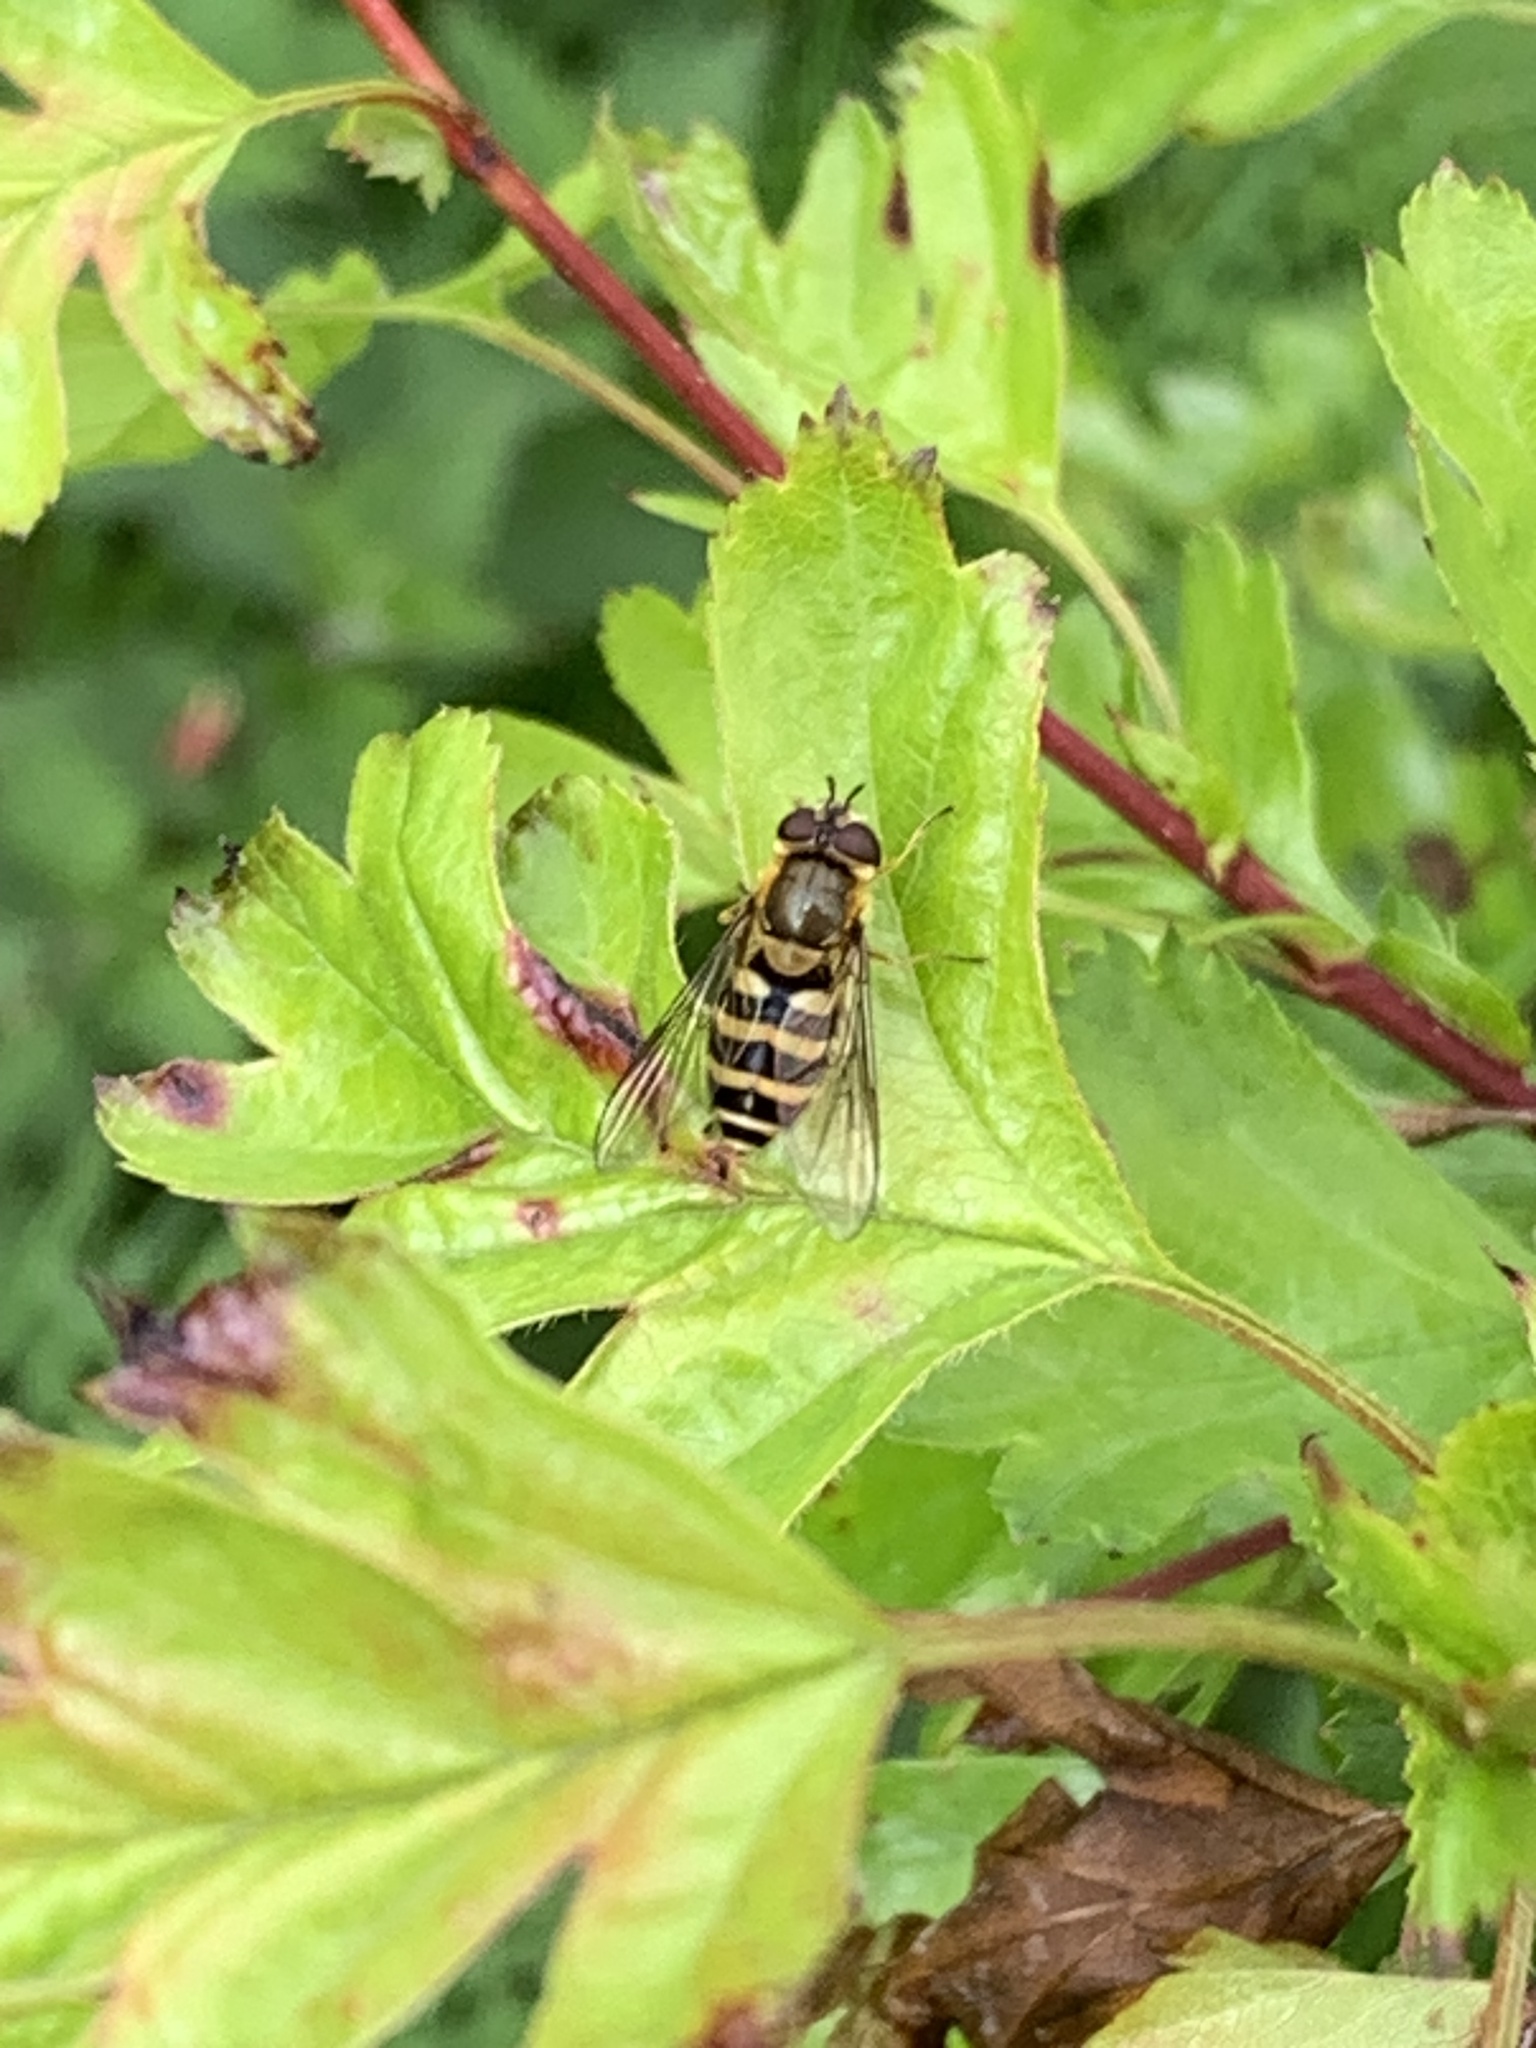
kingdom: Animalia
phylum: Arthropoda
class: Insecta
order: Diptera
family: Syrphidae
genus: Syrphus
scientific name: Syrphus
